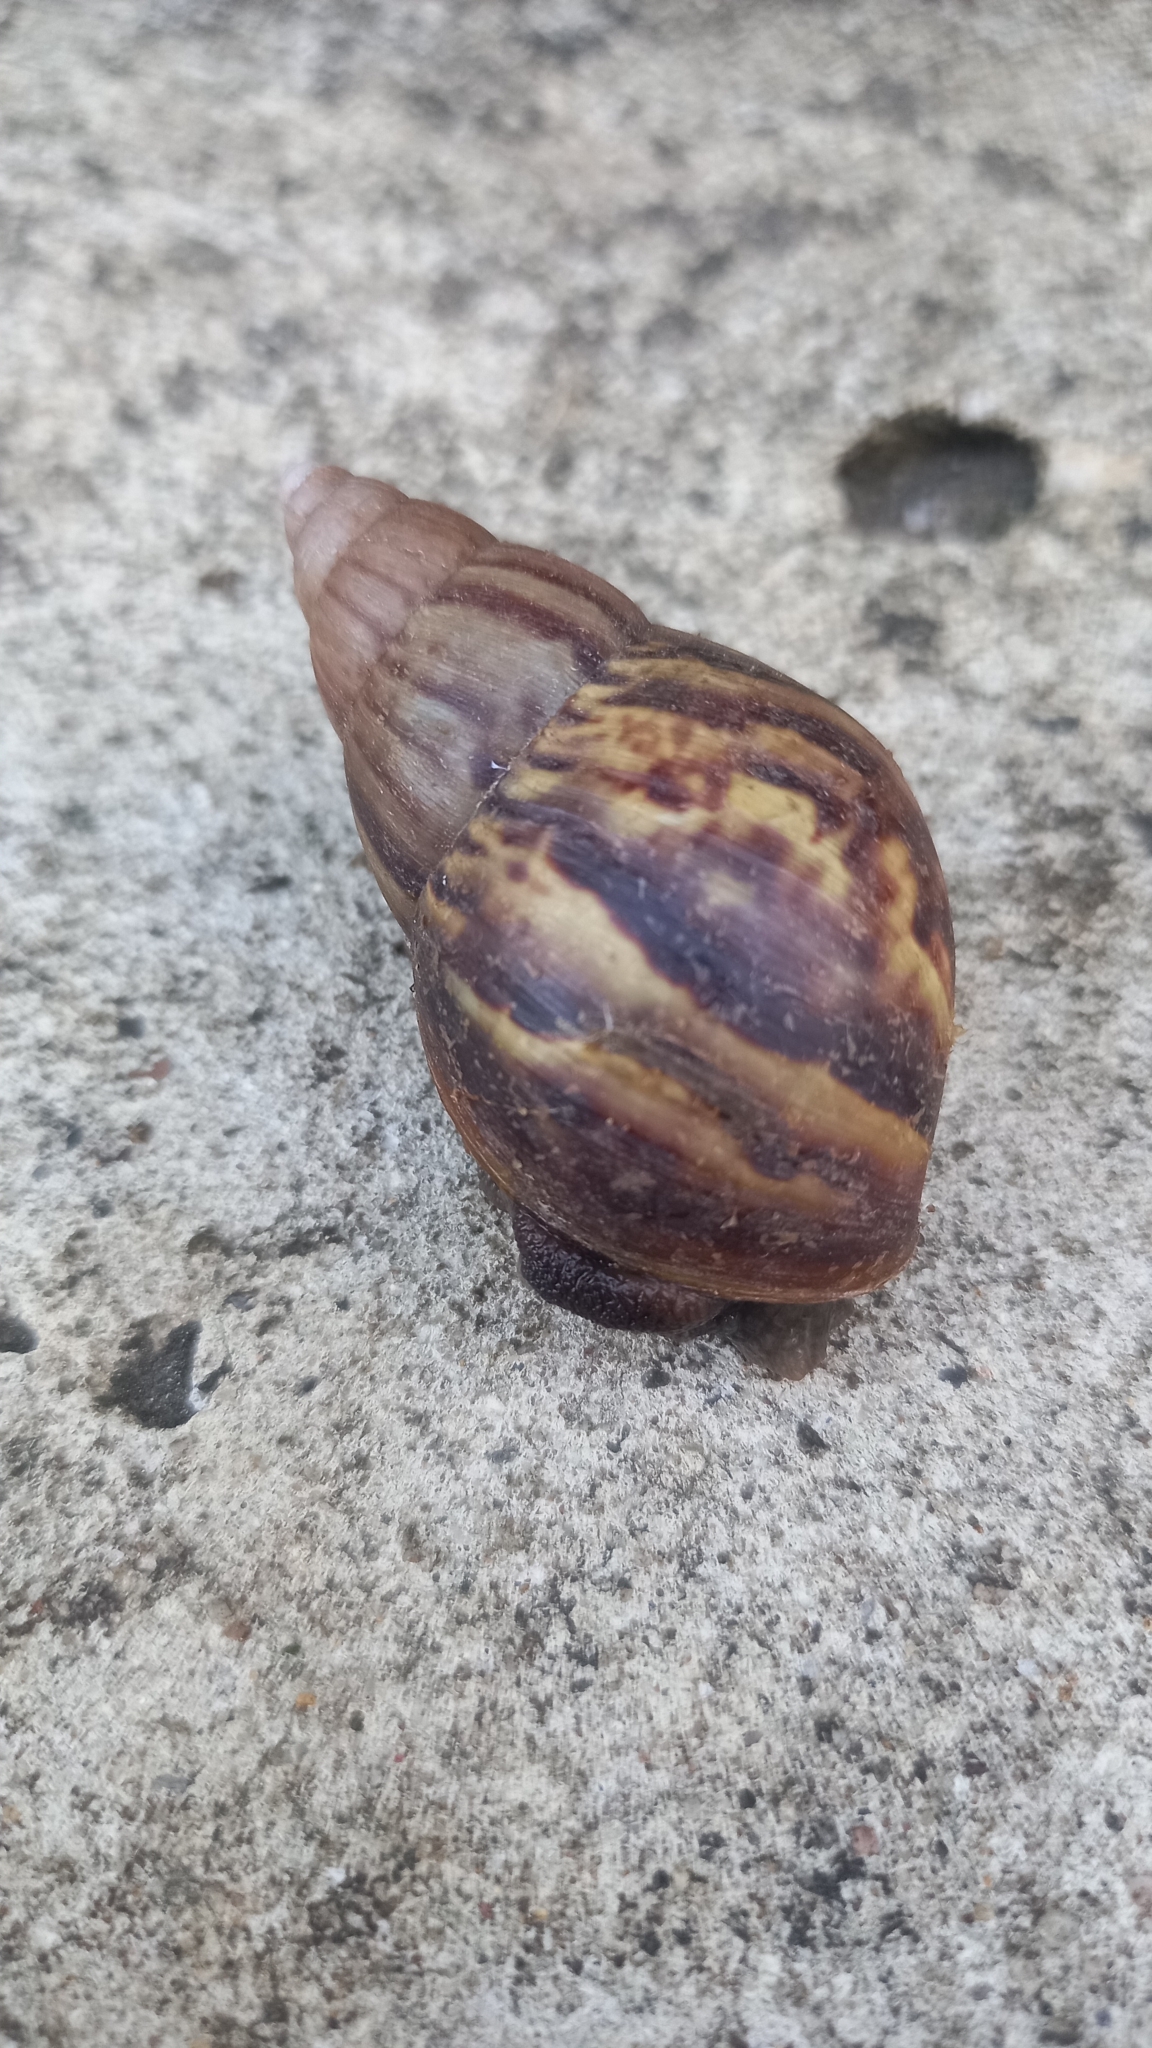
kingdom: Animalia
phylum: Mollusca
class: Gastropoda
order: Stylommatophora
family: Achatinidae
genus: Lissachatina
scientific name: Lissachatina fulica
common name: Giant african snail
